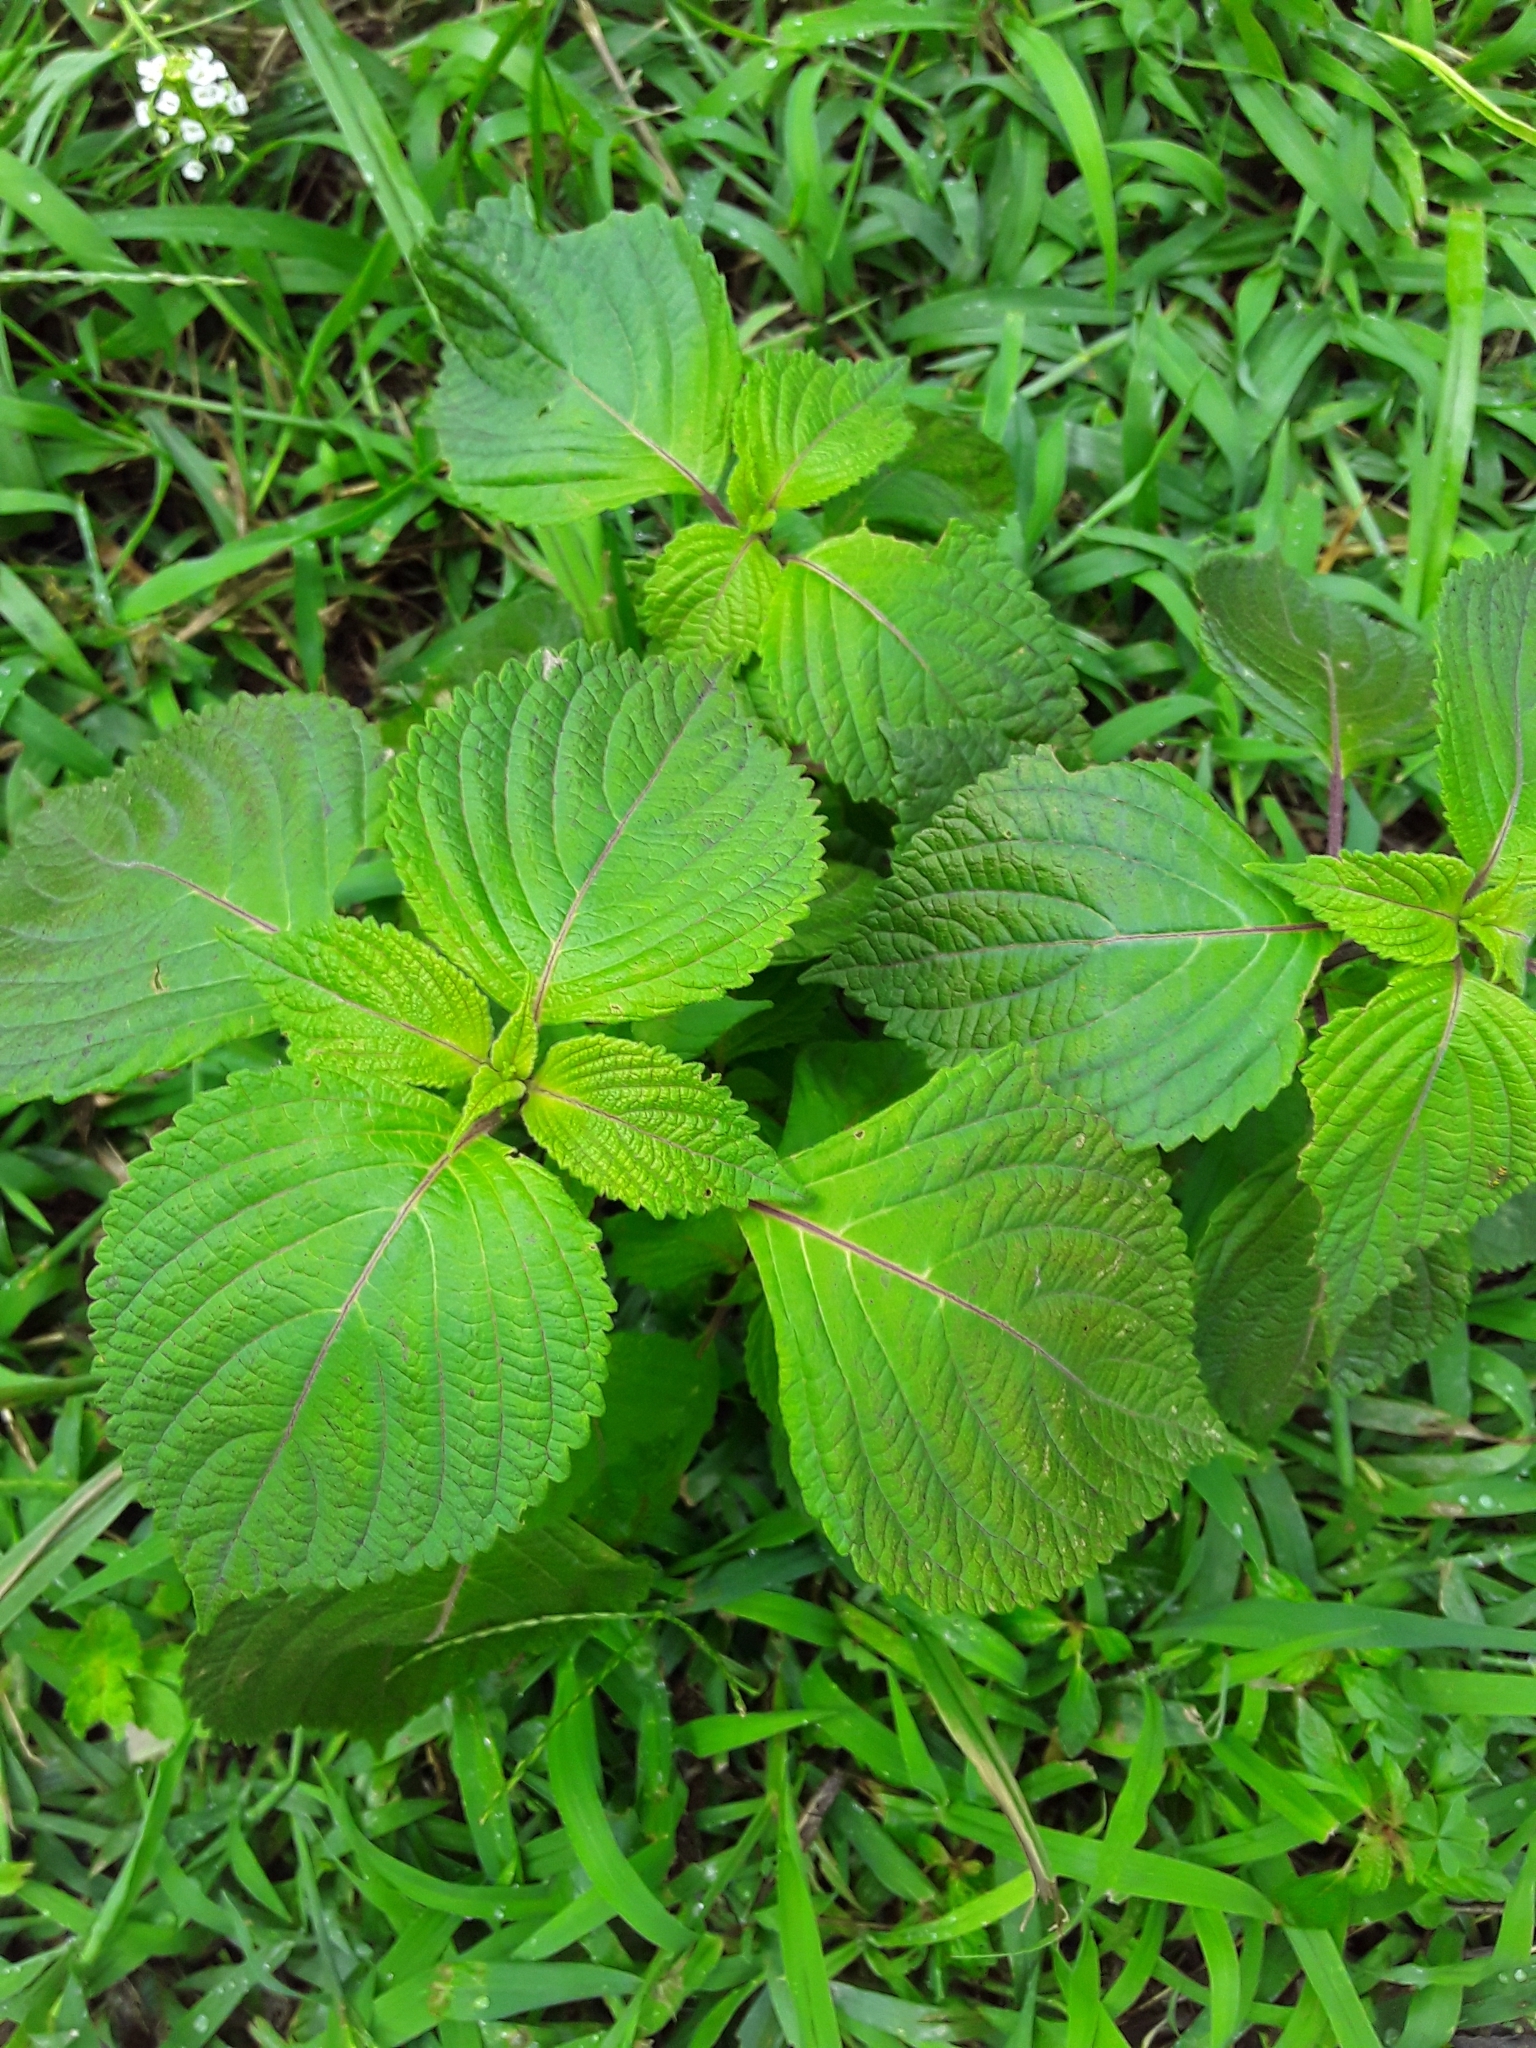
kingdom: Plantae
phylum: Tracheophyta
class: Magnoliopsida
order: Lamiales
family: Lamiaceae
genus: Perilla
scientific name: Perilla frutescens
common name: Perilla
